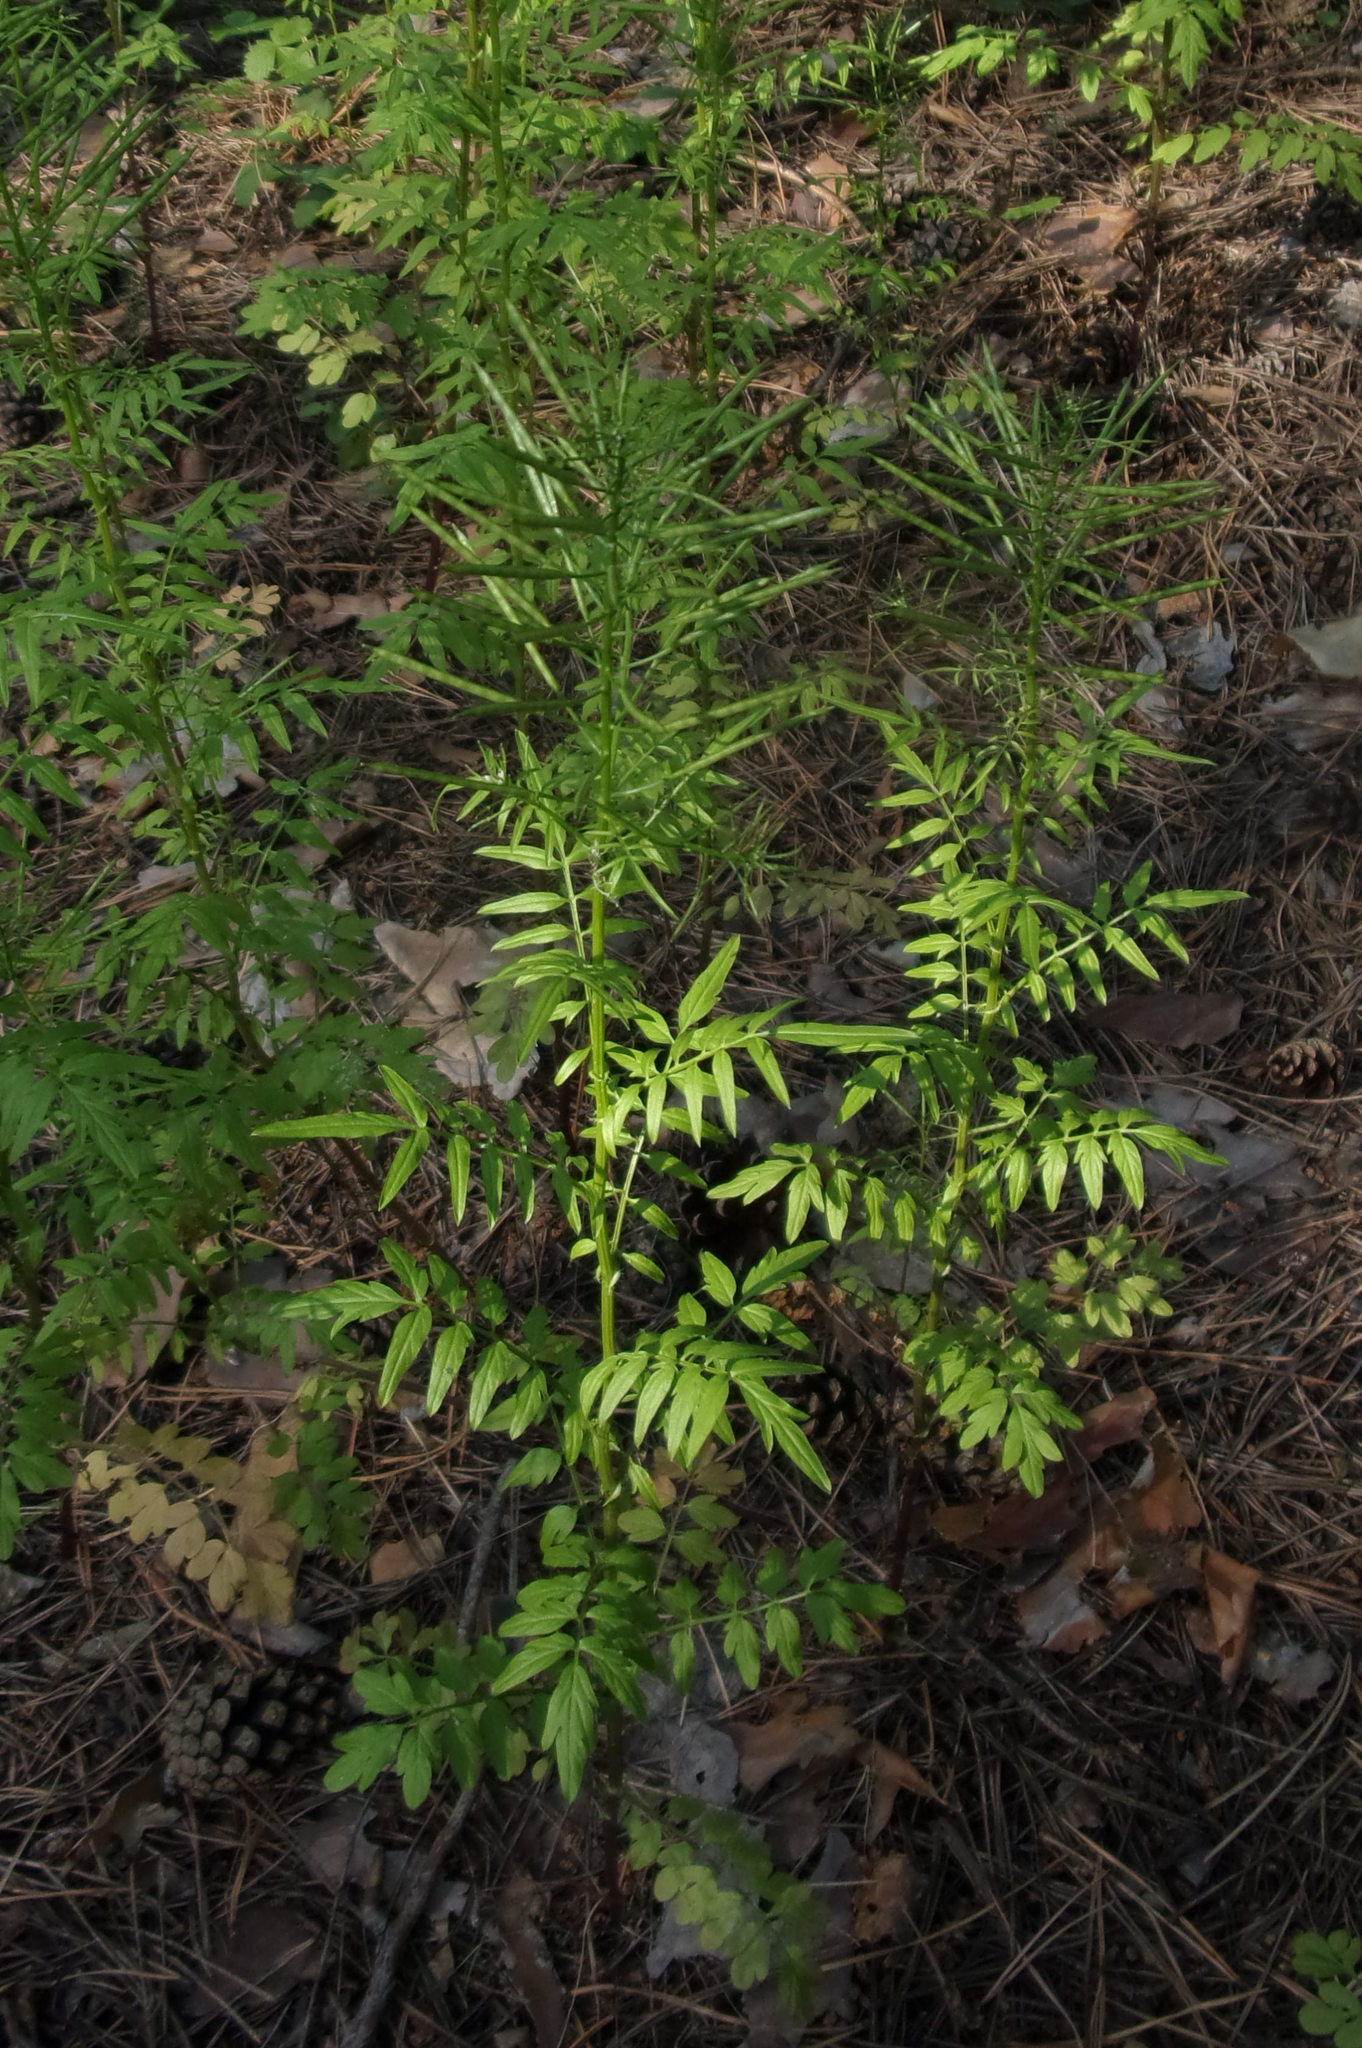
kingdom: Plantae
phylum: Tracheophyta
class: Magnoliopsida
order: Brassicales
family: Brassicaceae
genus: Cardamine
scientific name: Cardamine impatiens
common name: Narrow-leaved bitter-cress
